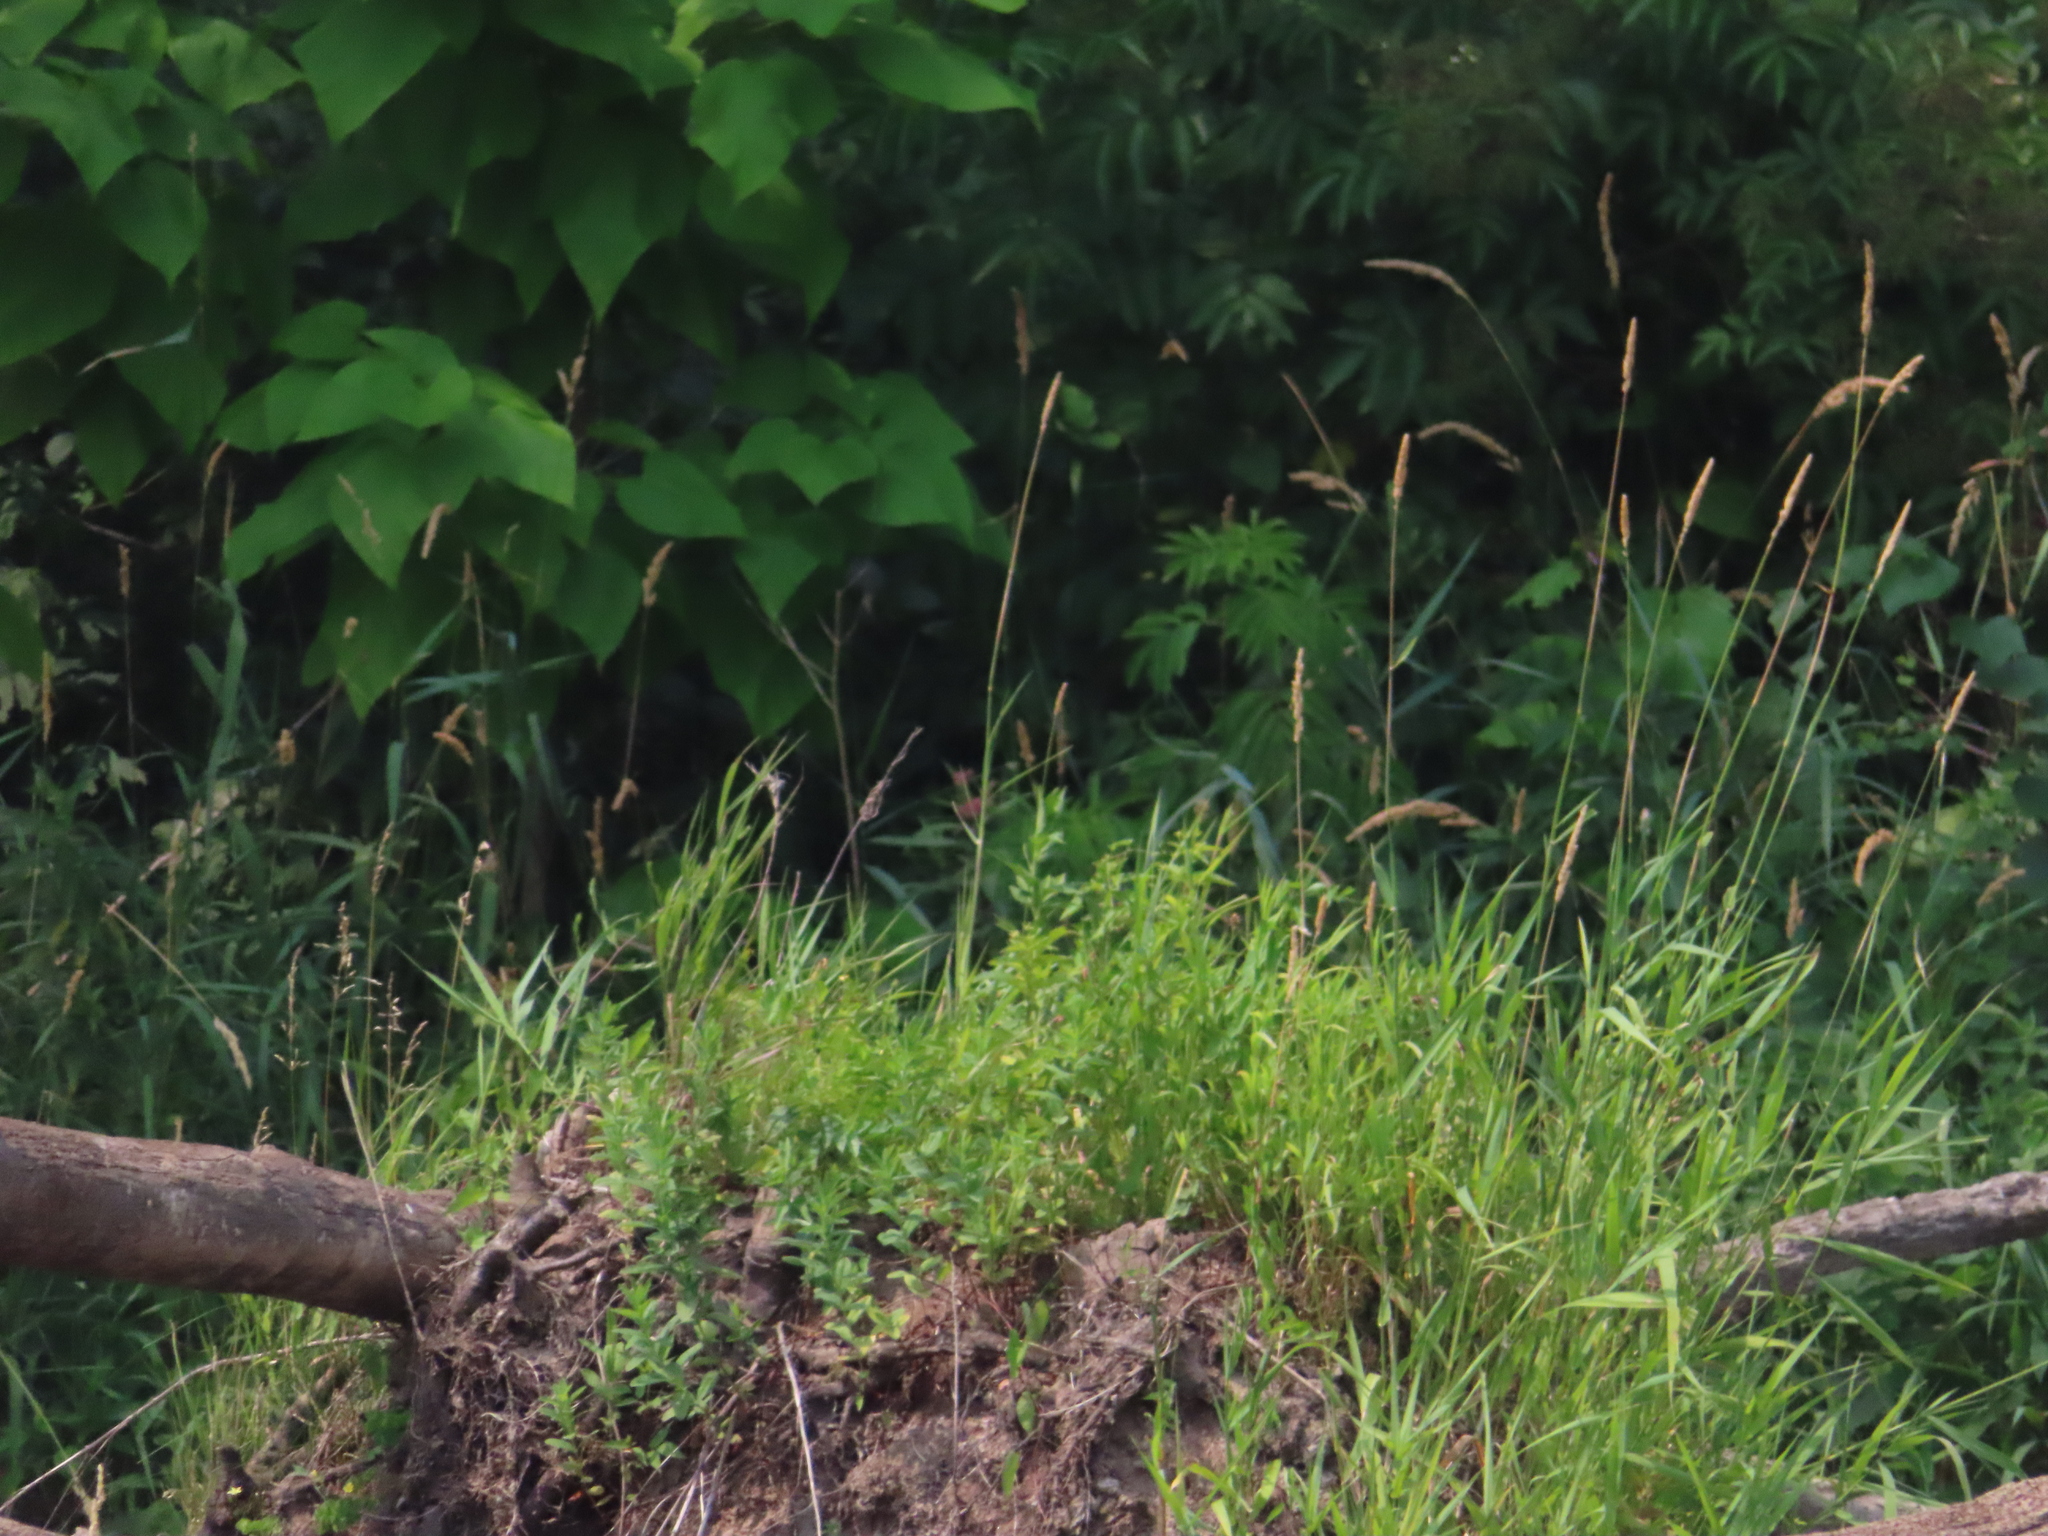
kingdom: Plantae
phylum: Tracheophyta
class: Liliopsida
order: Poales
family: Poaceae
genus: Phalaris
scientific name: Phalaris arundinacea
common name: Reed canary-grass
